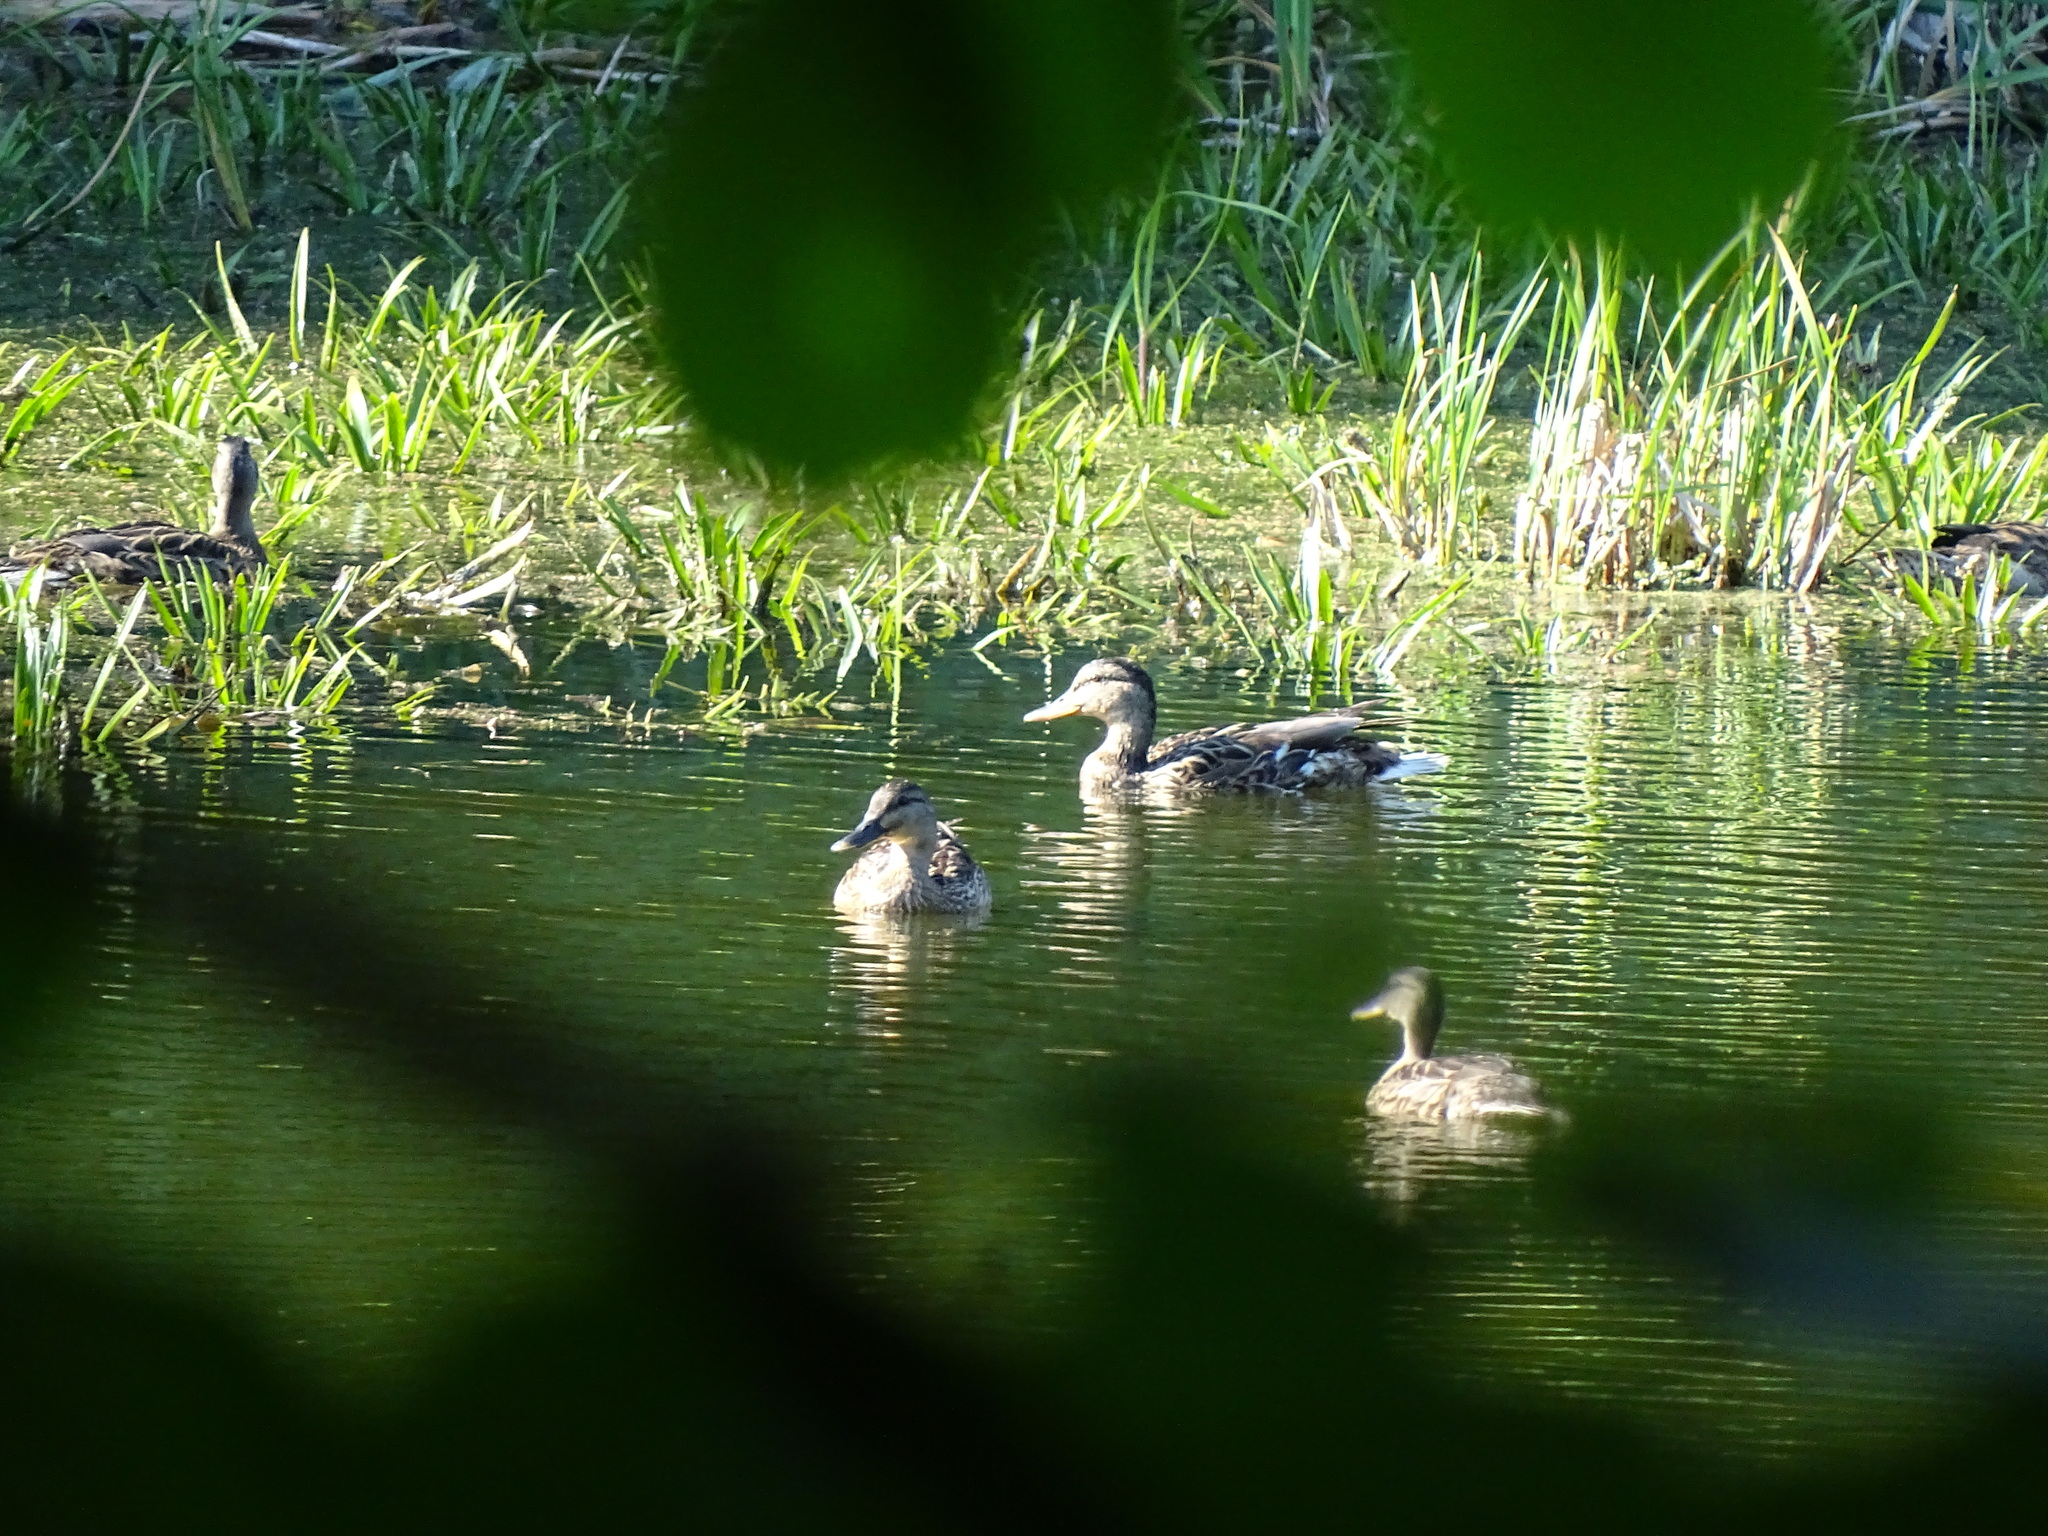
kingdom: Animalia
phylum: Chordata
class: Aves
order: Anseriformes
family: Anatidae
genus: Anas
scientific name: Anas platyrhynchos
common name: Mallard
